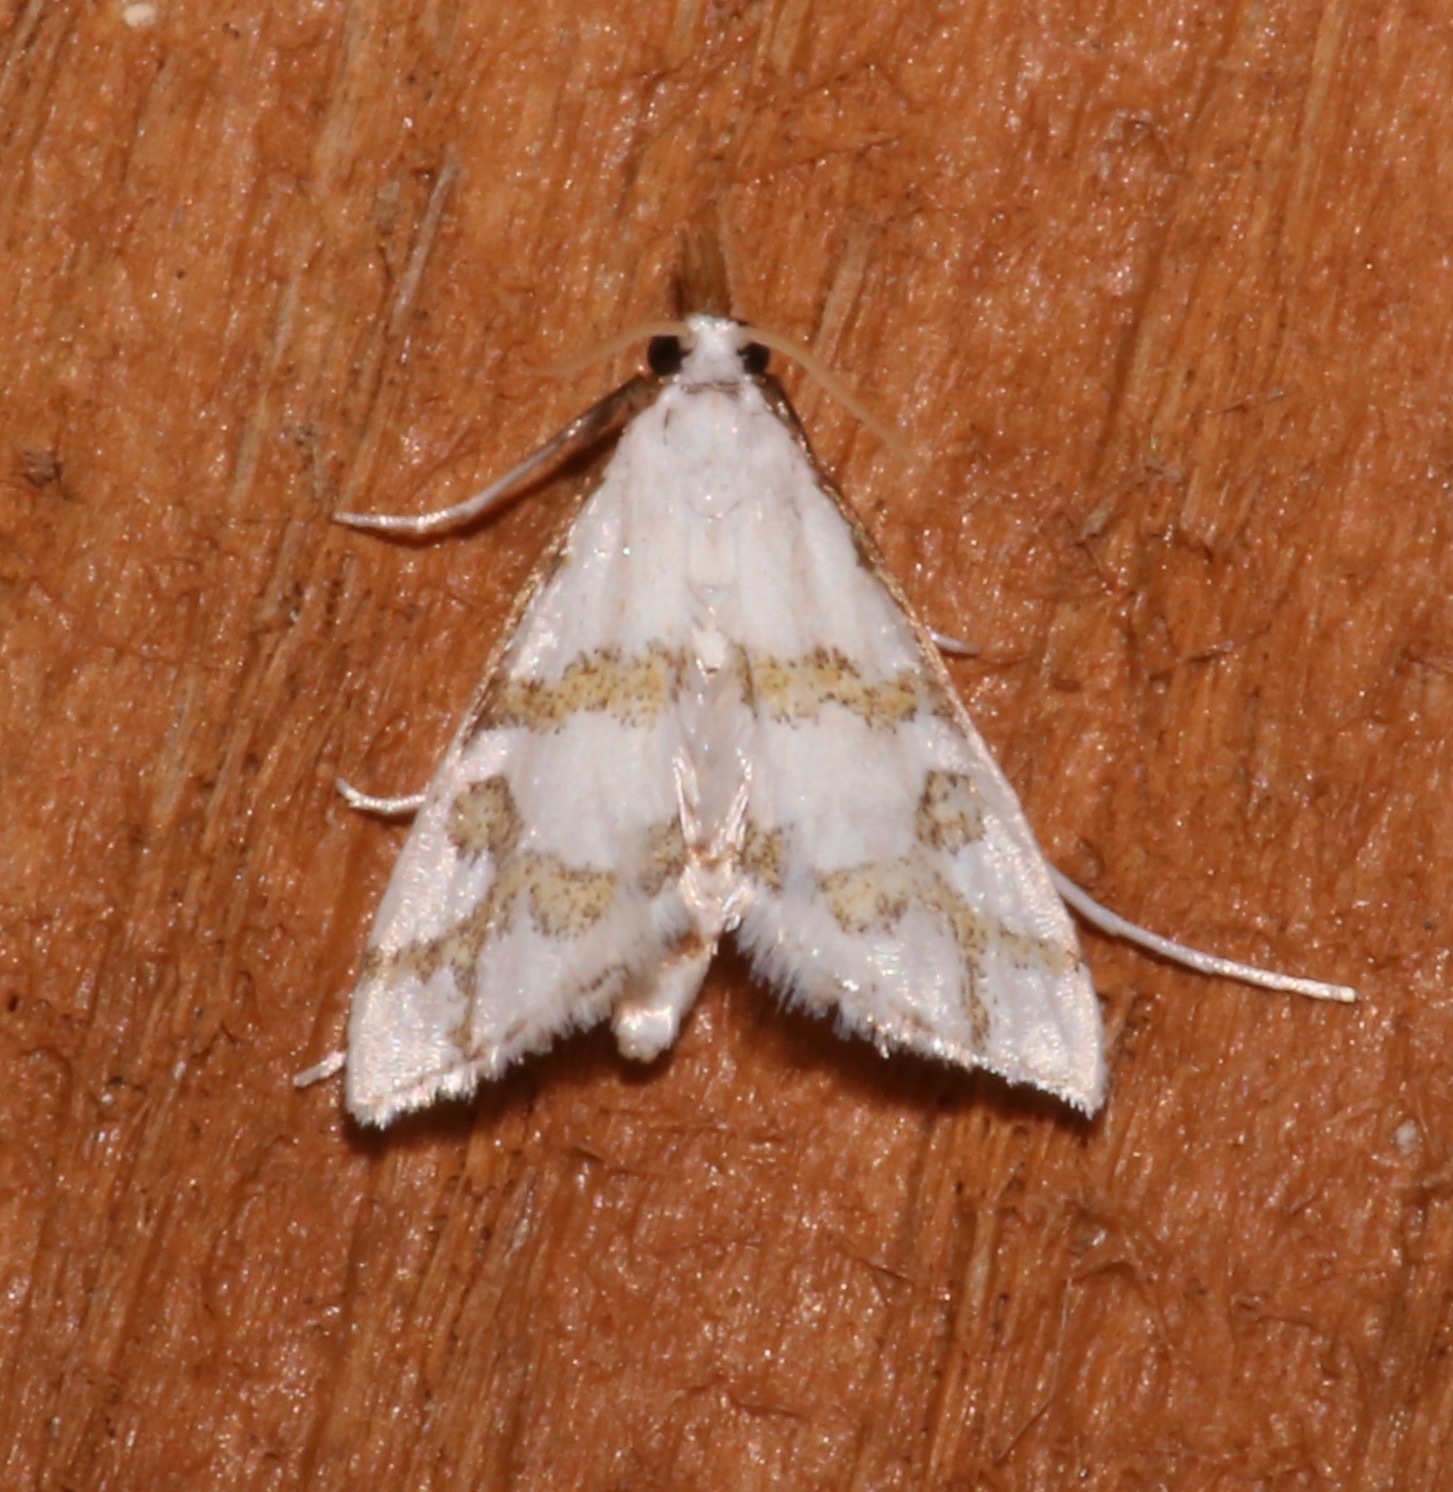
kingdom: Animalia
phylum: Arthropoda
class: Insecta
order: Lepidoptera
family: Crambidae
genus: Leptosteges
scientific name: Leptosteges
